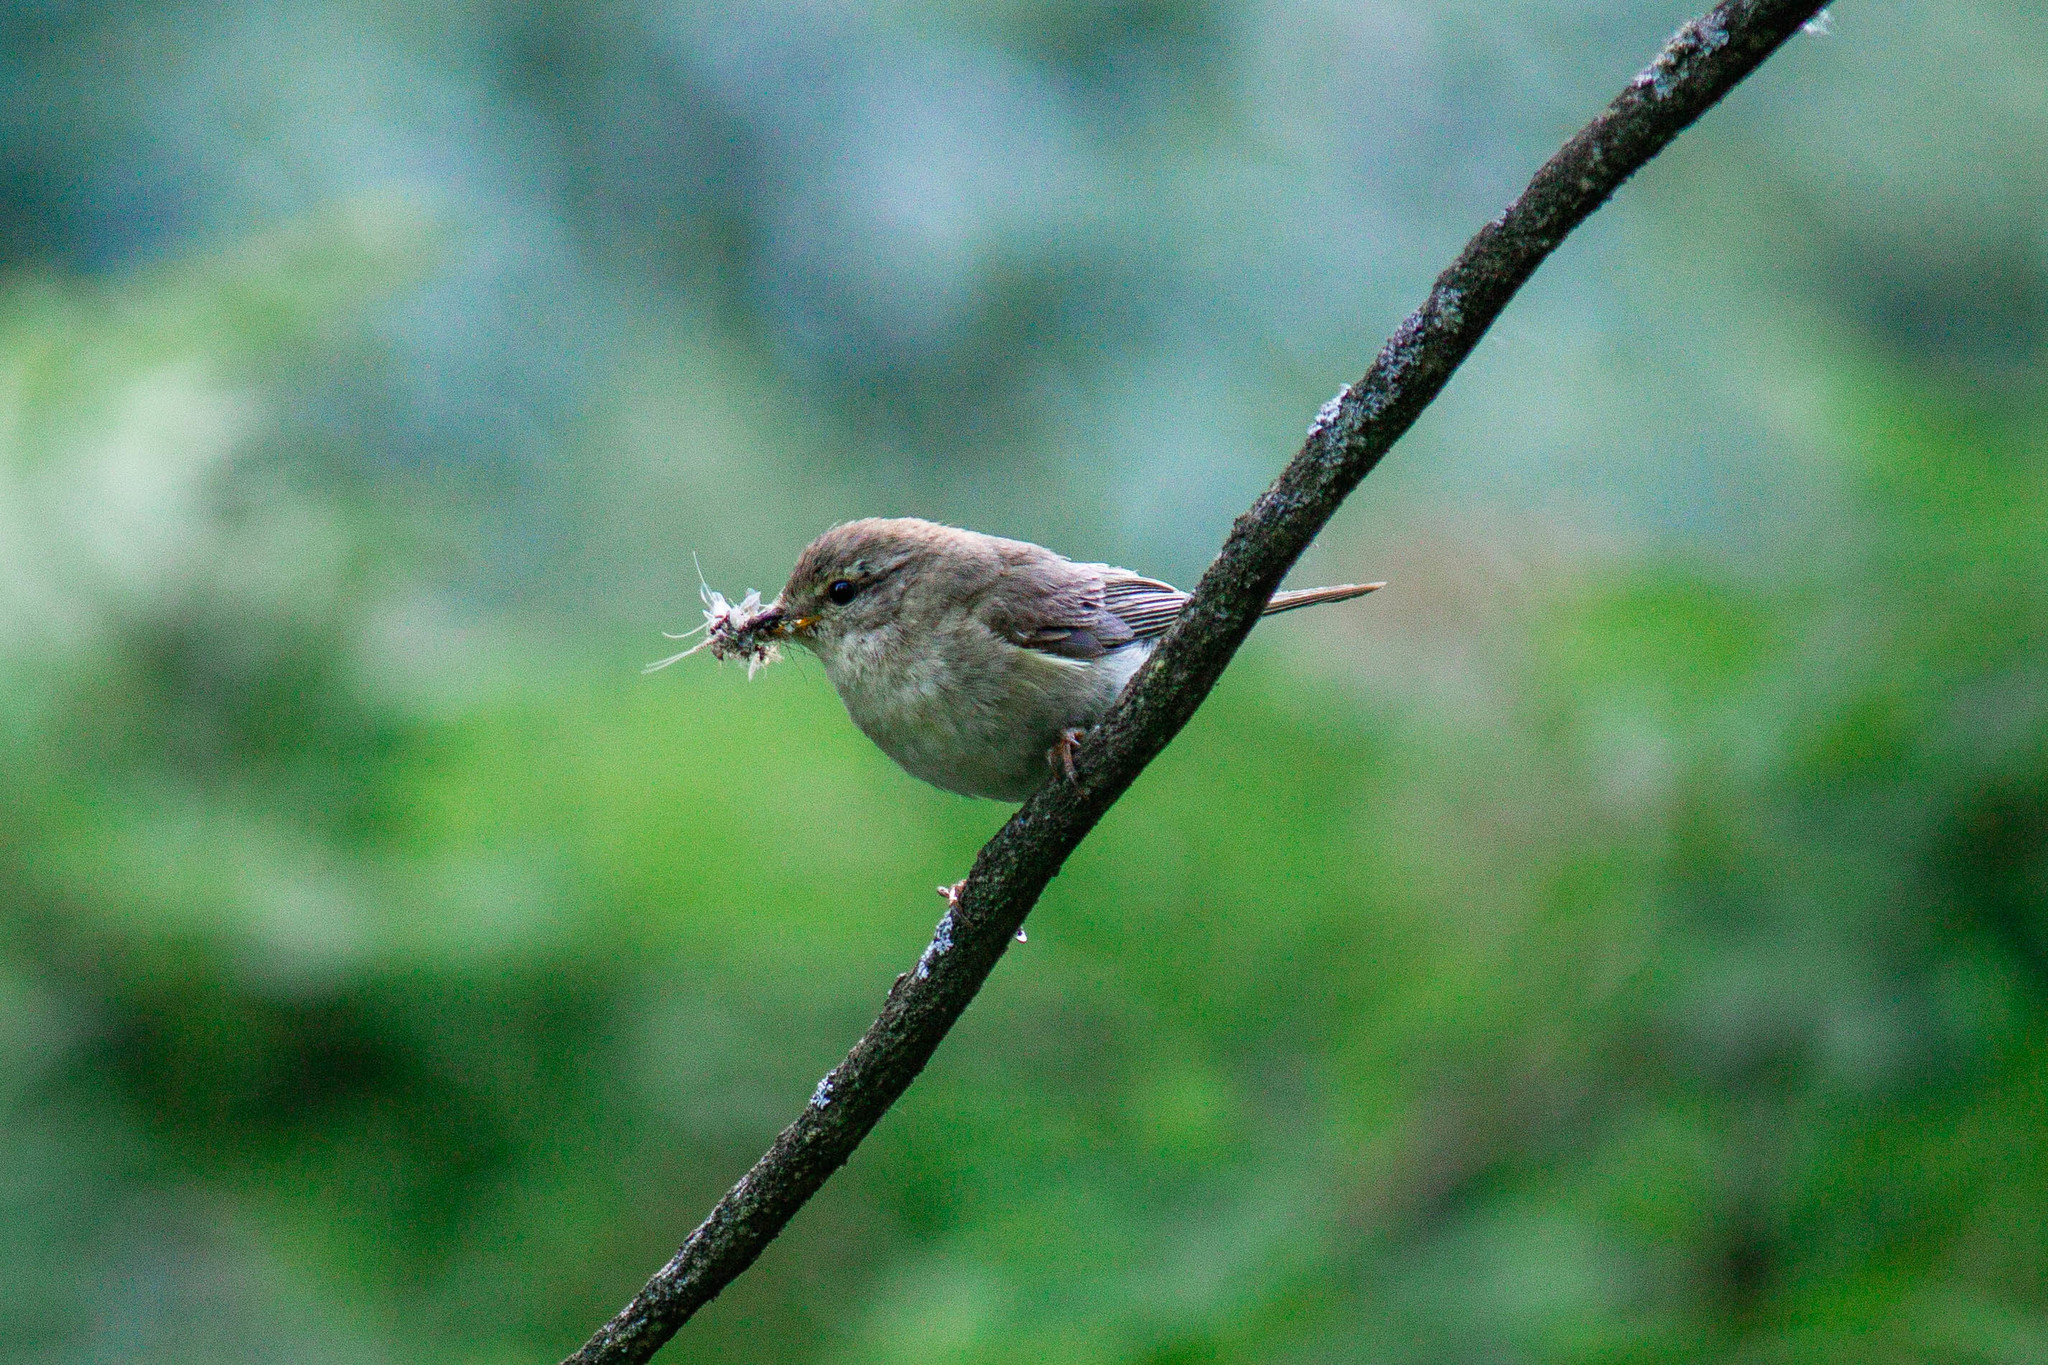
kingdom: Animalia
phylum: Chordata
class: Aves
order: Passeriformes
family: Phylloscopidae
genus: Phylloscopus
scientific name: Phylloscopus trochilus
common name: Willow warbler
